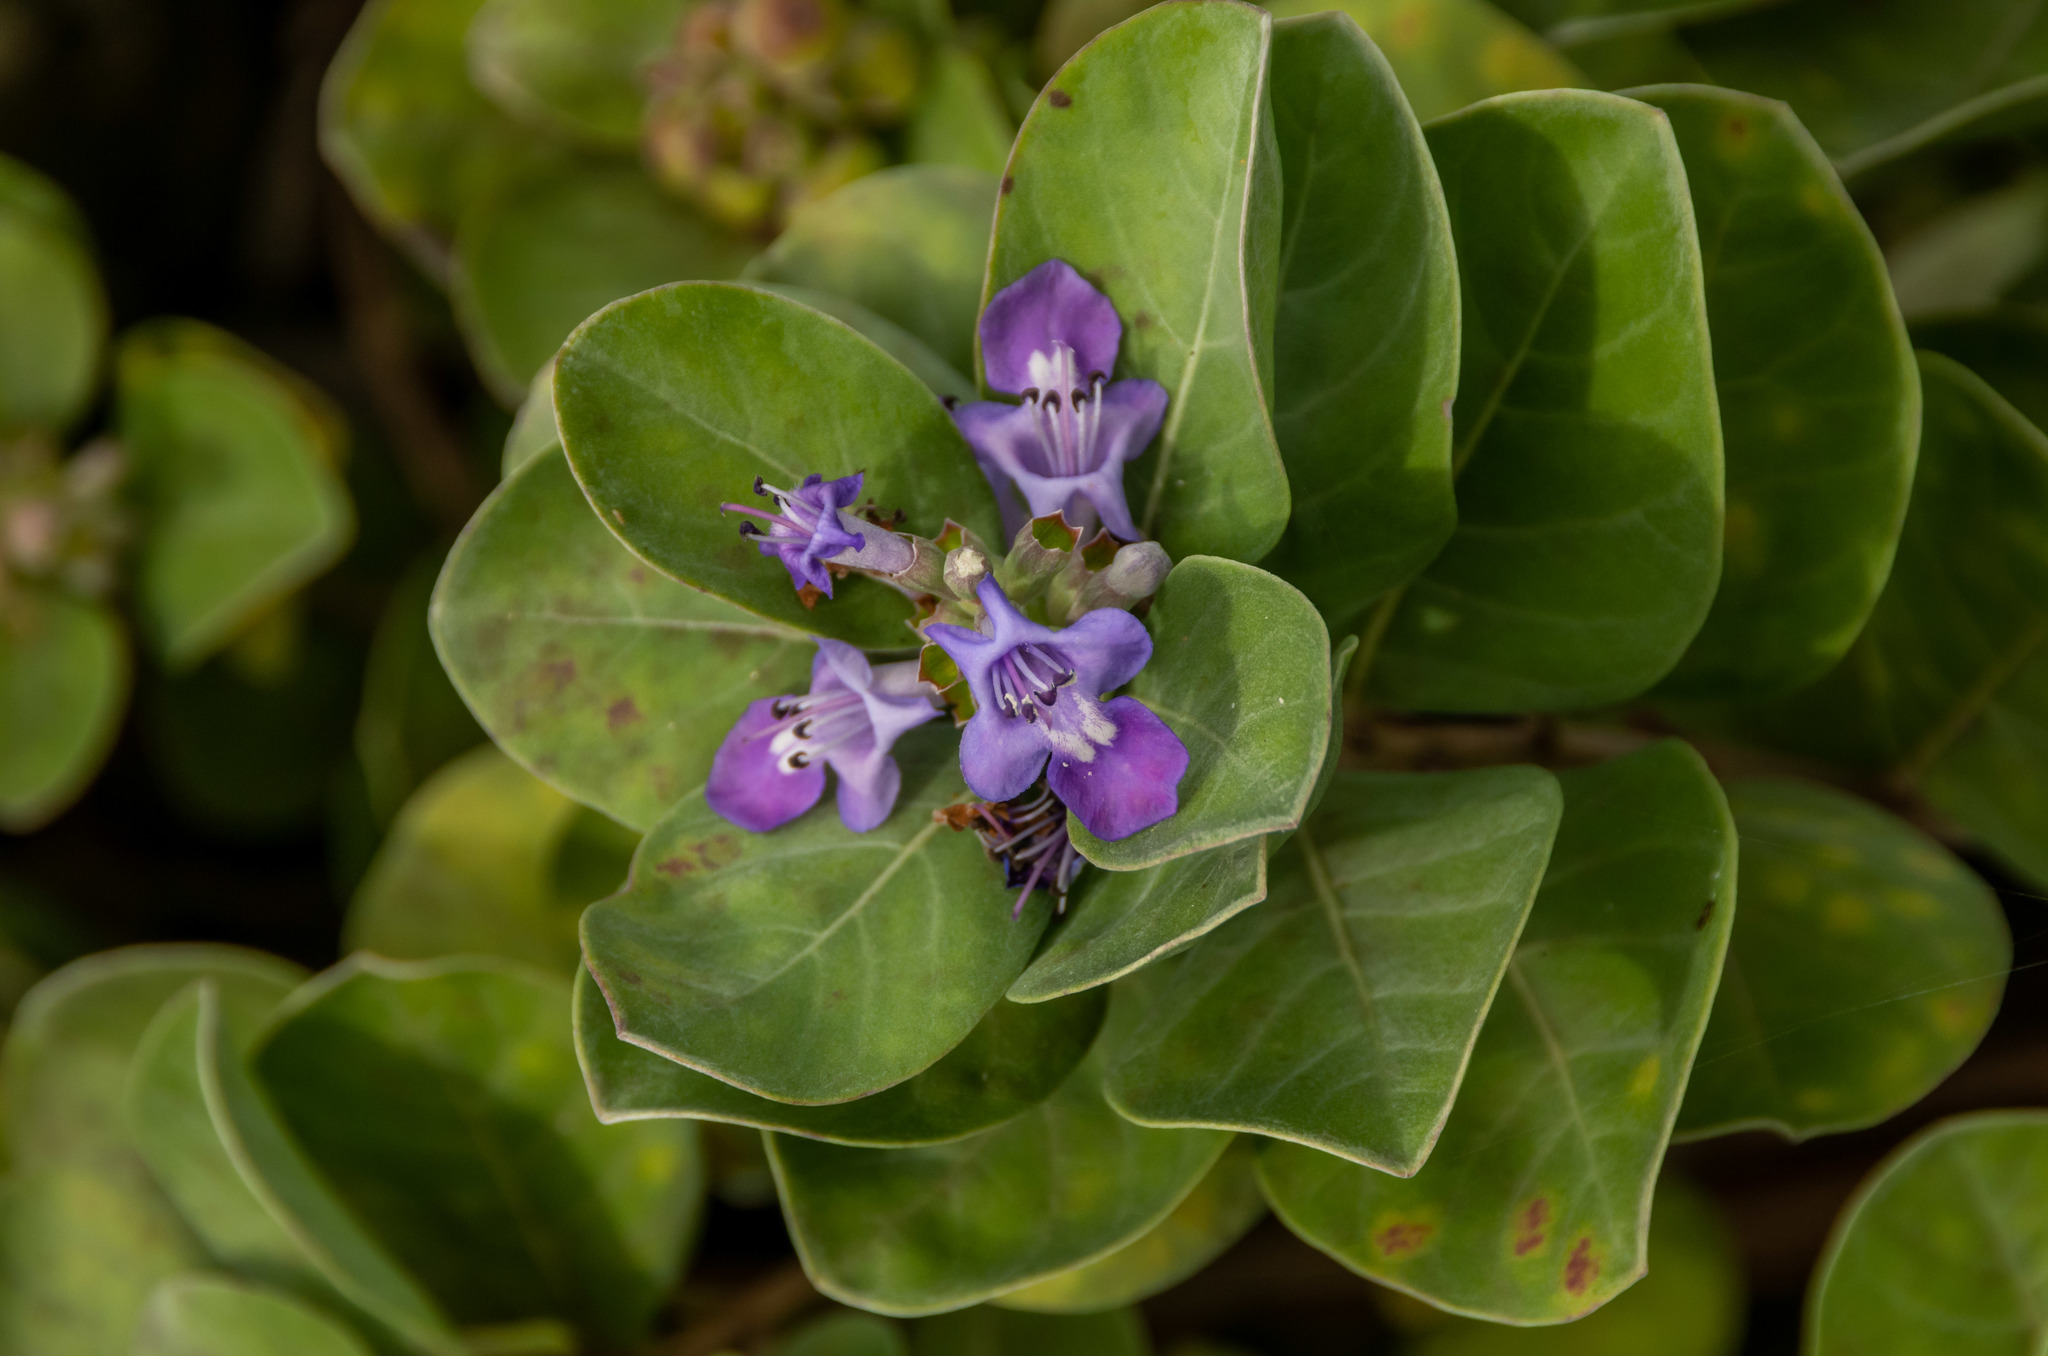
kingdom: Plantae
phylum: Tracheophyta
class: Magnoliopsida
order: Lamiales
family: Lamiaceae
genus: Vitex
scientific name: Vitex rotundifolia
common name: Beach vitex
